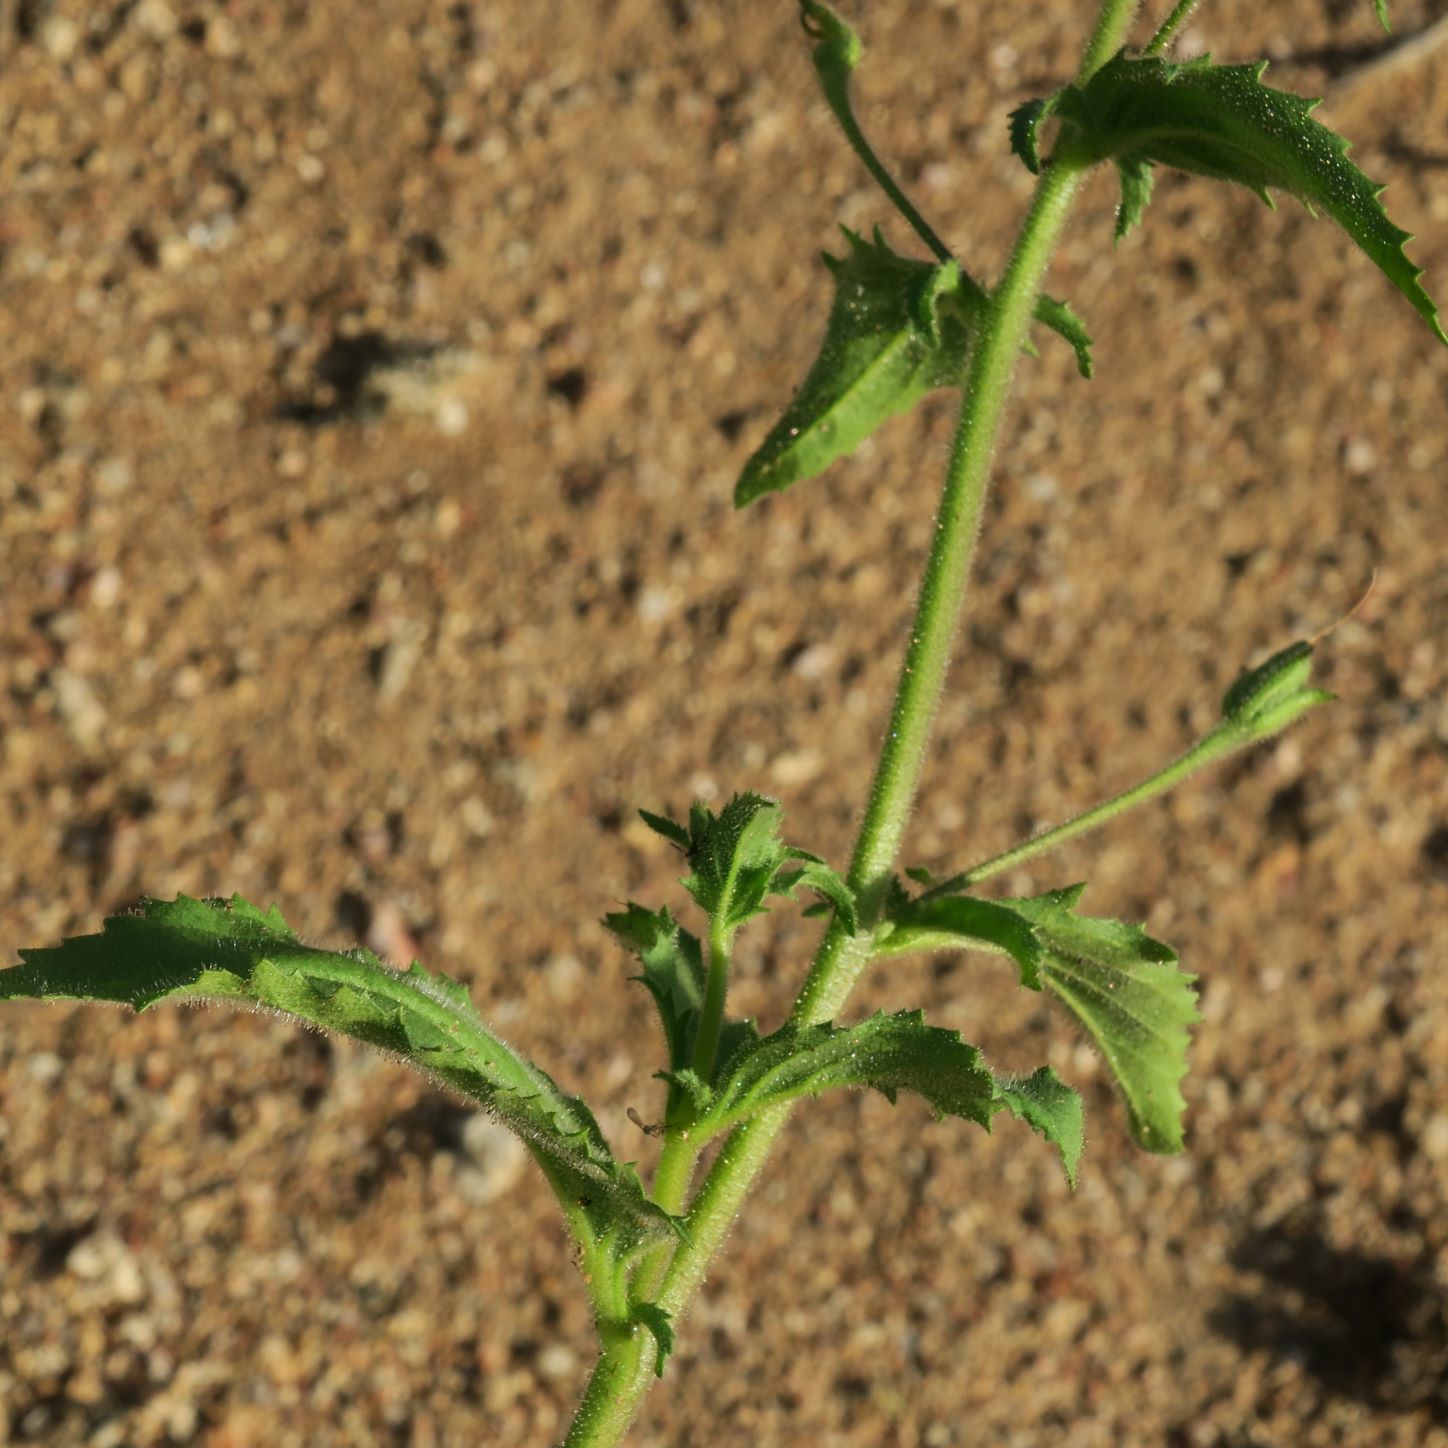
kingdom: Plantae
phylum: Tracheophyta
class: Magnoliopsida
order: Lamiales
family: Scrophulariaceae
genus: Jamesbrittenia
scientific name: Jamesbrittenia racemosa
